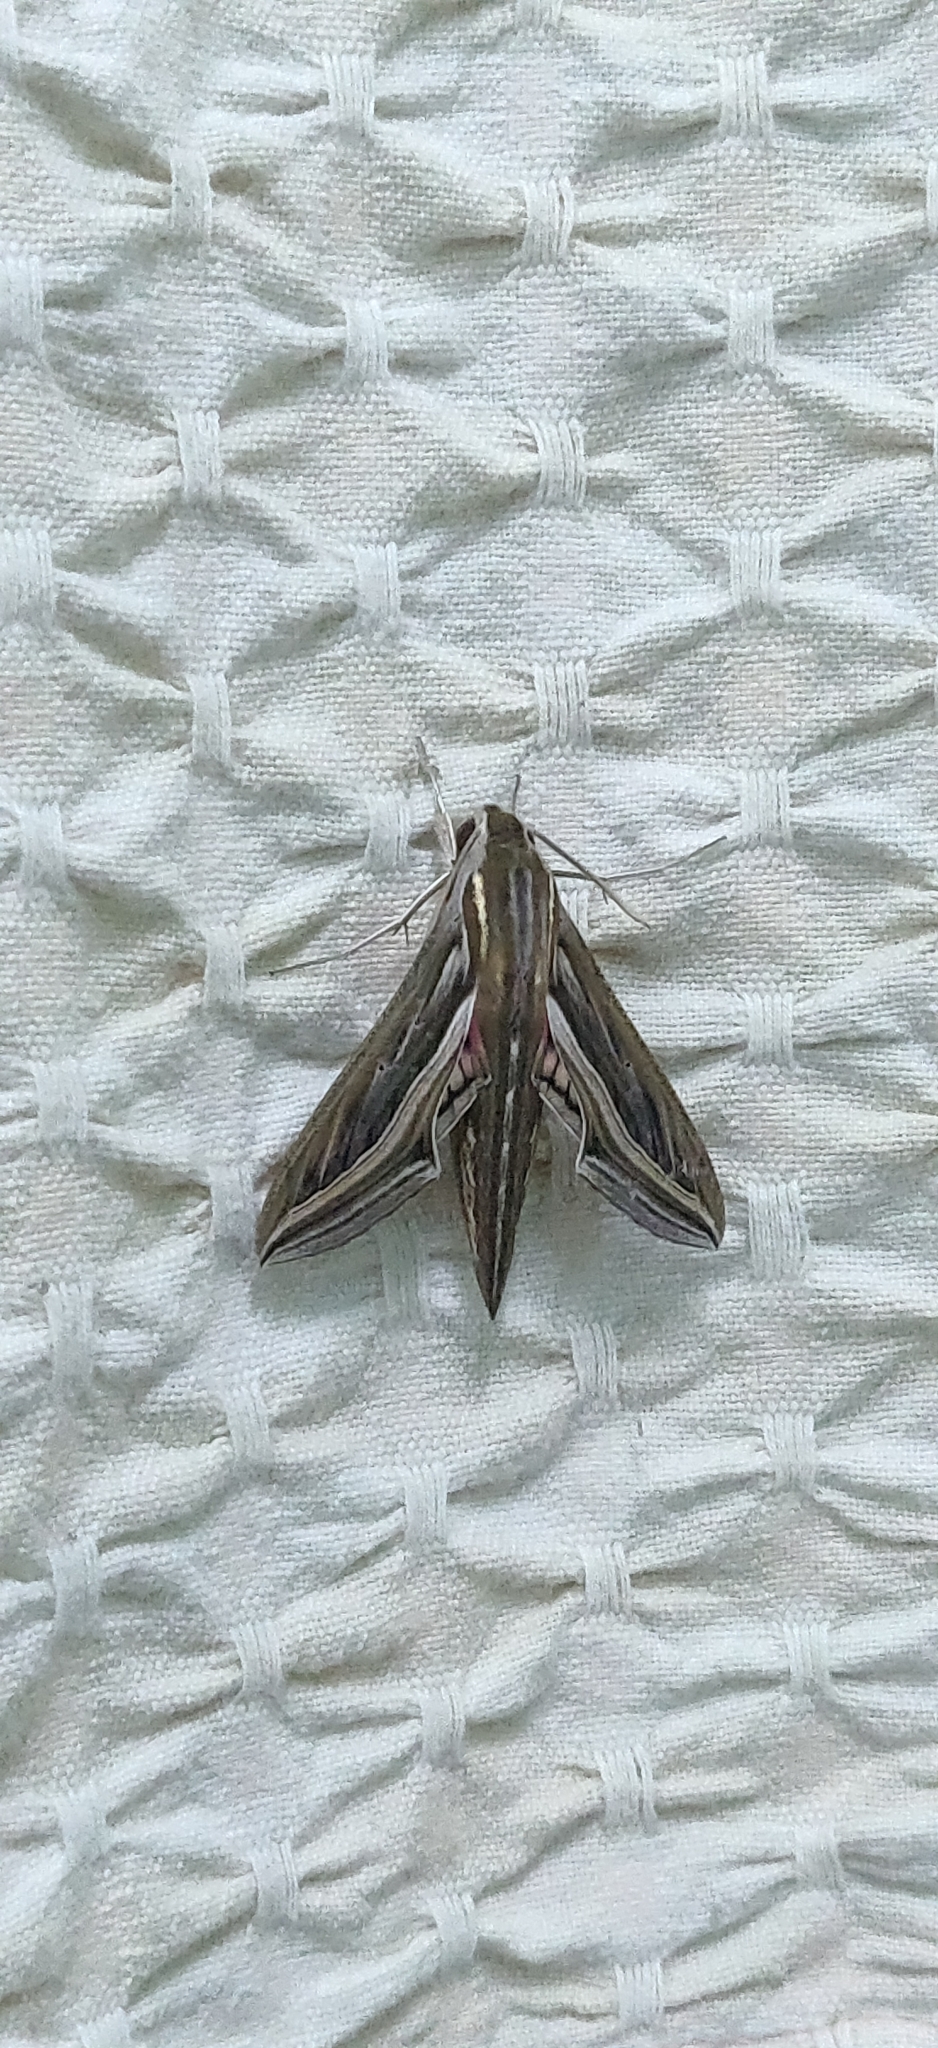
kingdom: Animalia
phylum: Arthropoda
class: Insecta
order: Lepidoptera
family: Sphingidae
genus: Hippotion
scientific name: Hippotion celerio
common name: Silver-striped hawk-moth
